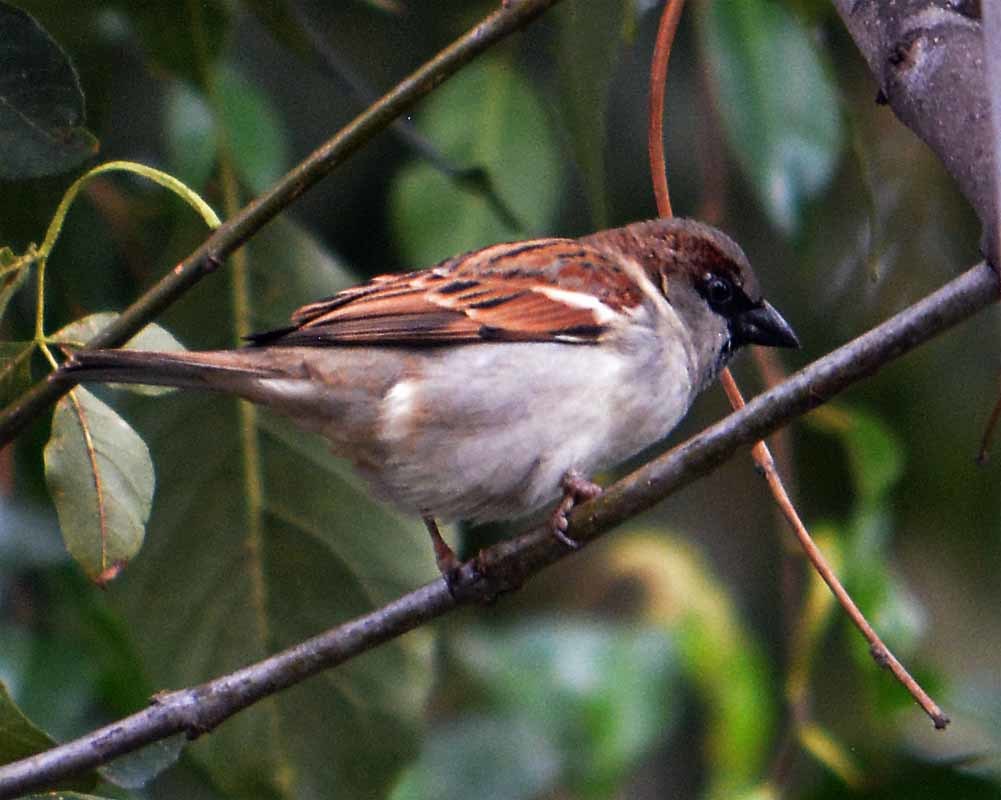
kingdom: Animalia
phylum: Chordata
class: Aves
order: Passeriformes
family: Passeridae
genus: Passer
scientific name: Passer domesticus
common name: House sparrow
